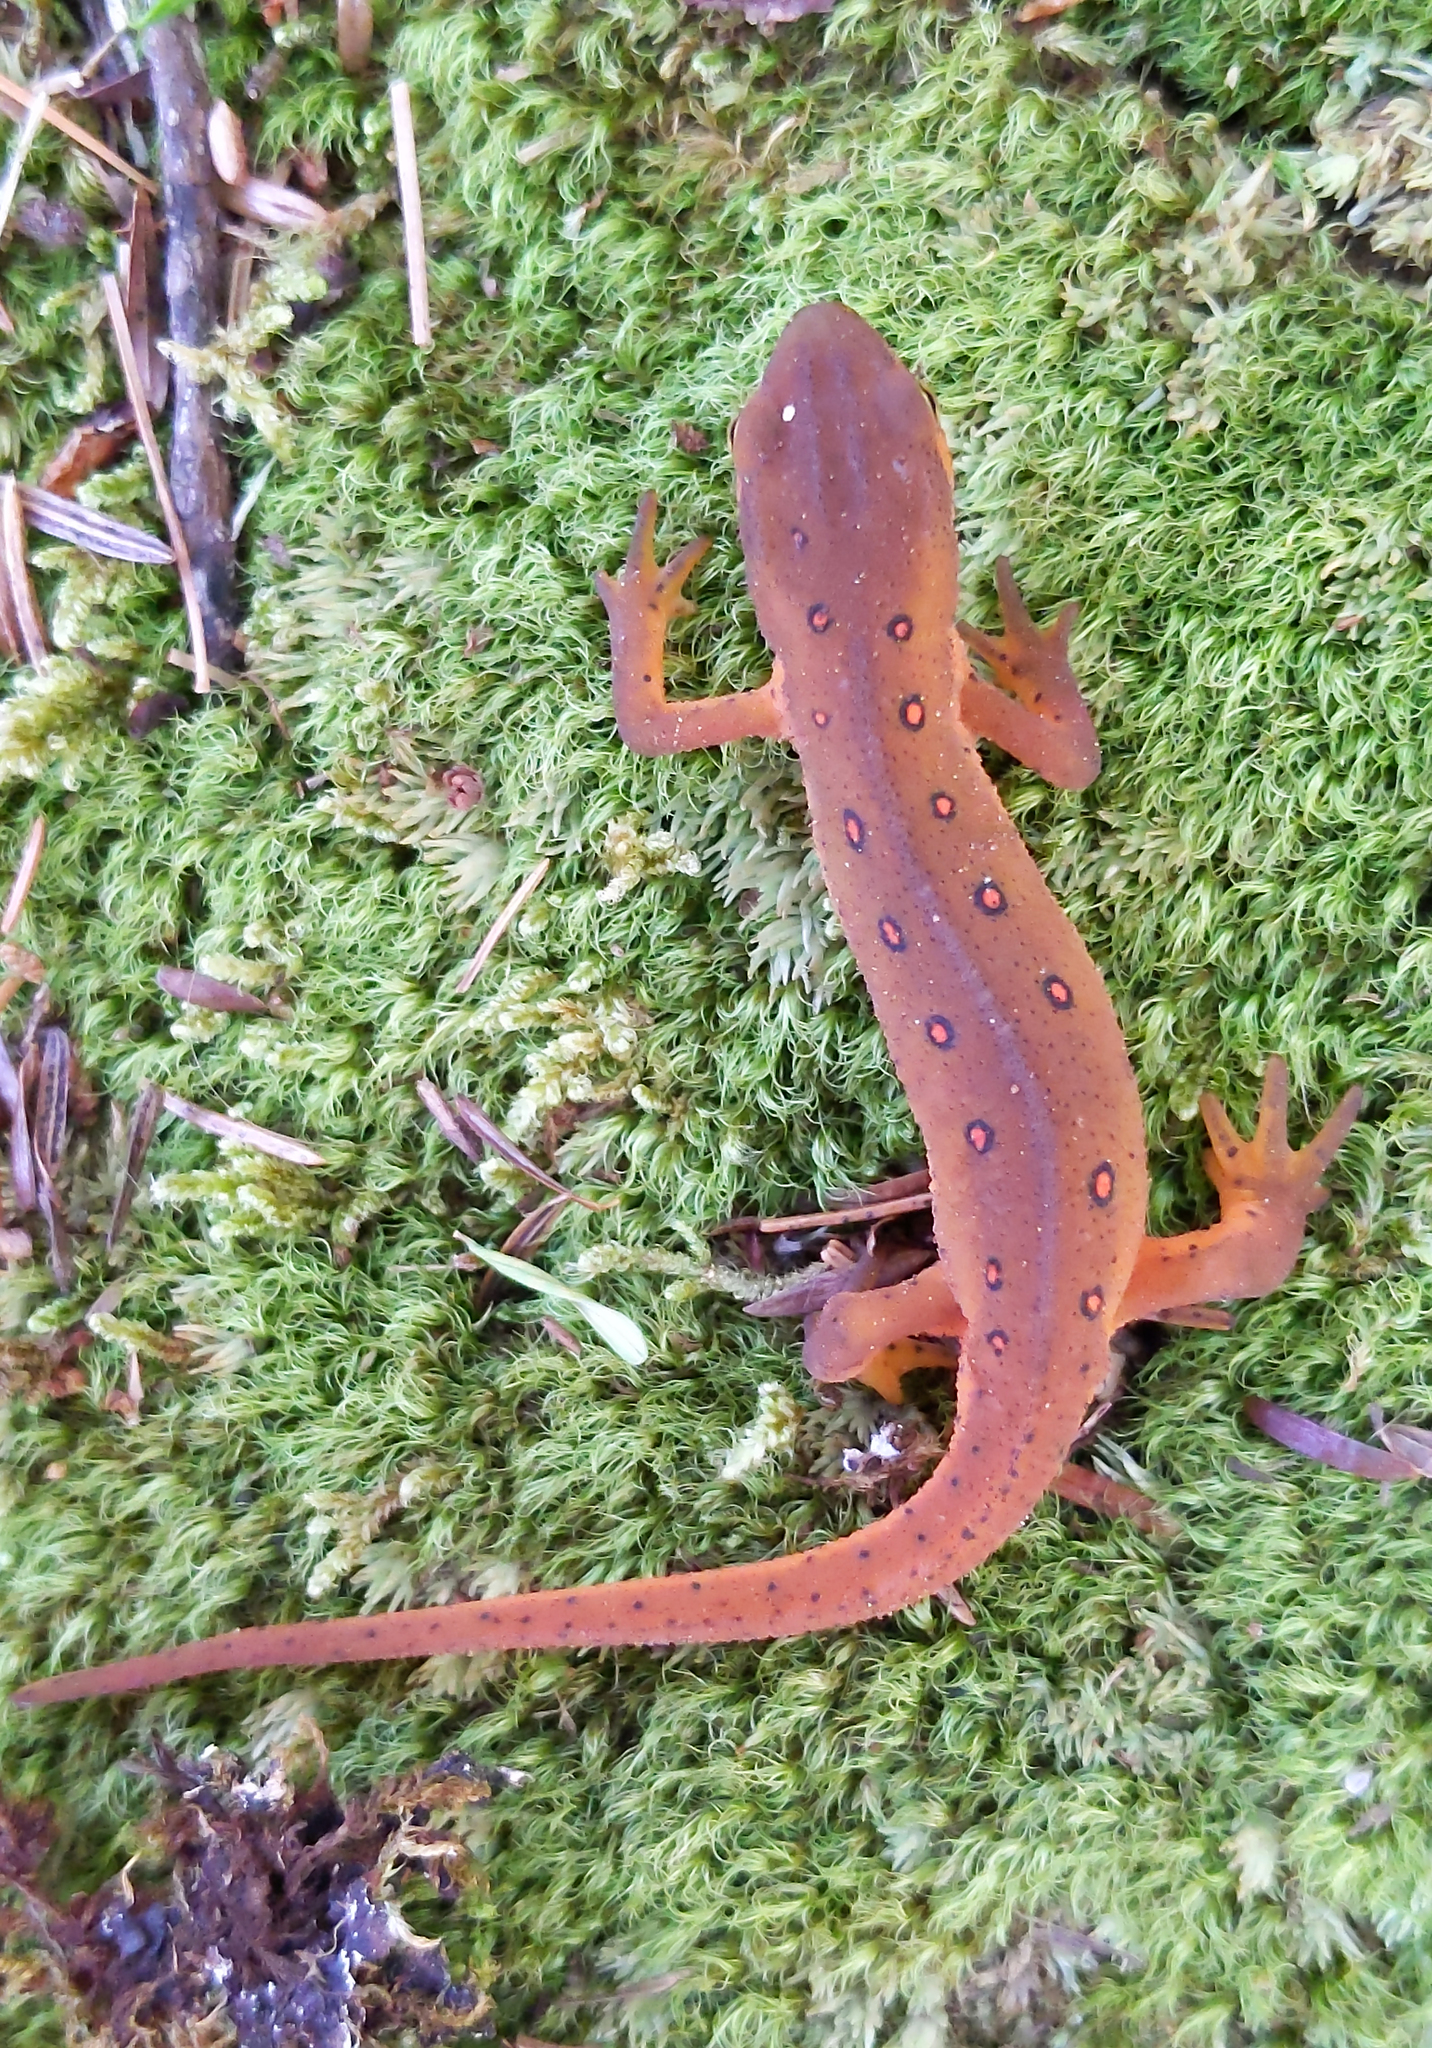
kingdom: Animalia
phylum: Chordata
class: Amphibia
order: Caudata
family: Salamandridae
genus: Notophthalmus
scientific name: Notophthalmus viridescens
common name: Eastern newt
